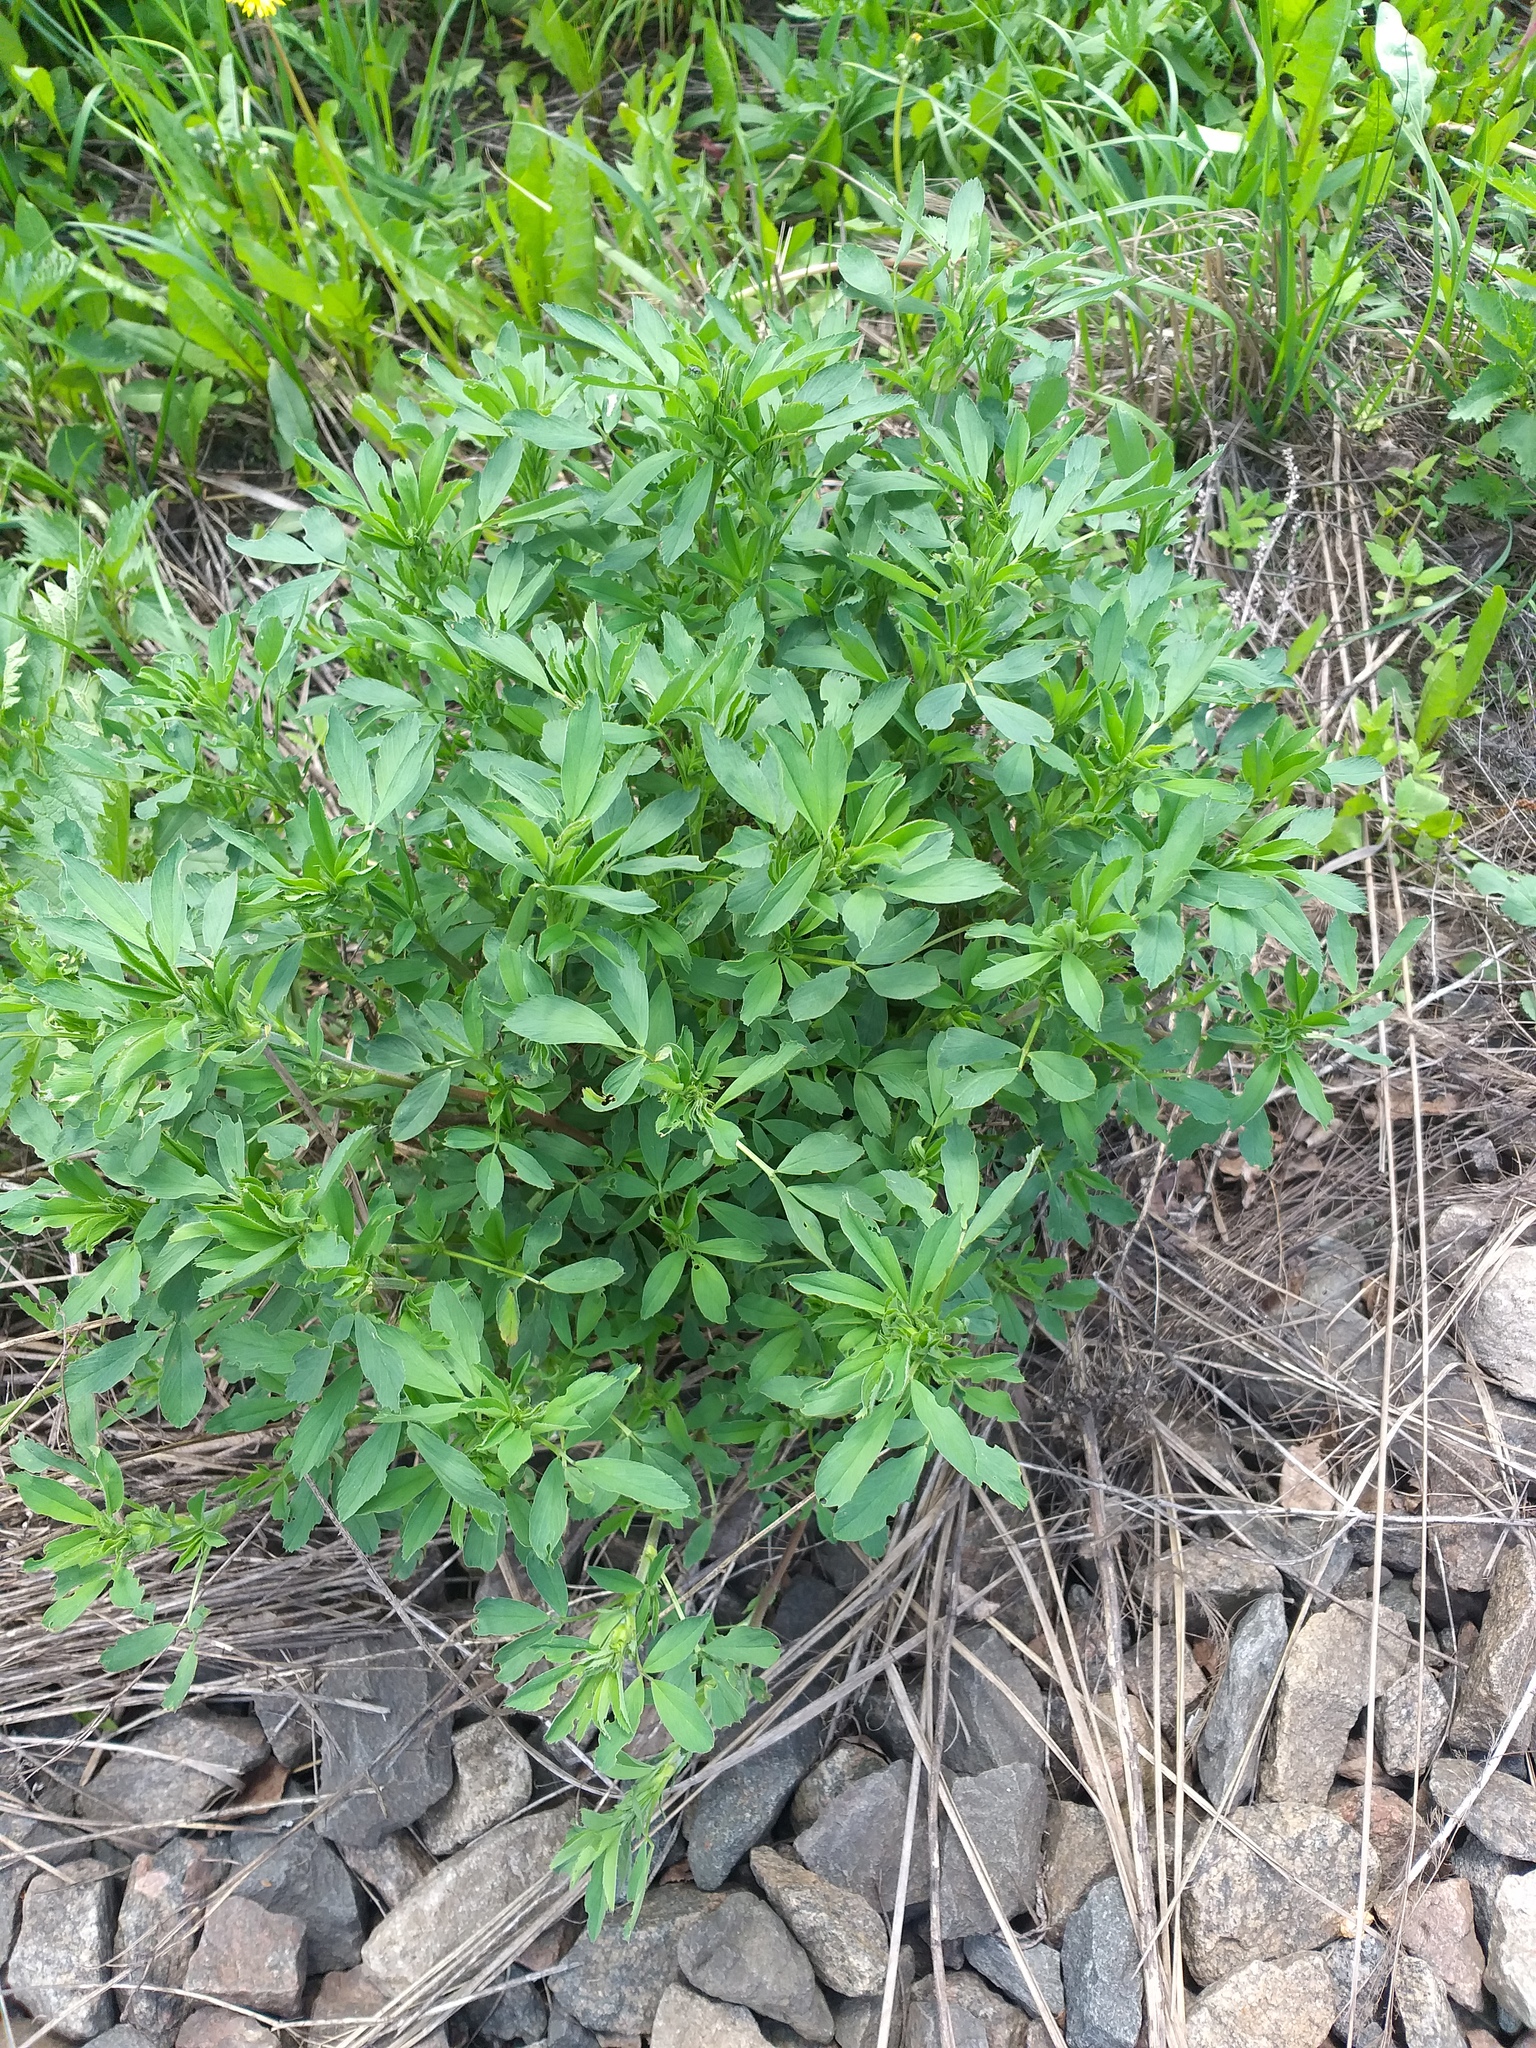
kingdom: Plantae
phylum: Tracheophyta
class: Magnoliopsida
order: Fabales
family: Fabaceae
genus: Medicago
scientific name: Medicago
